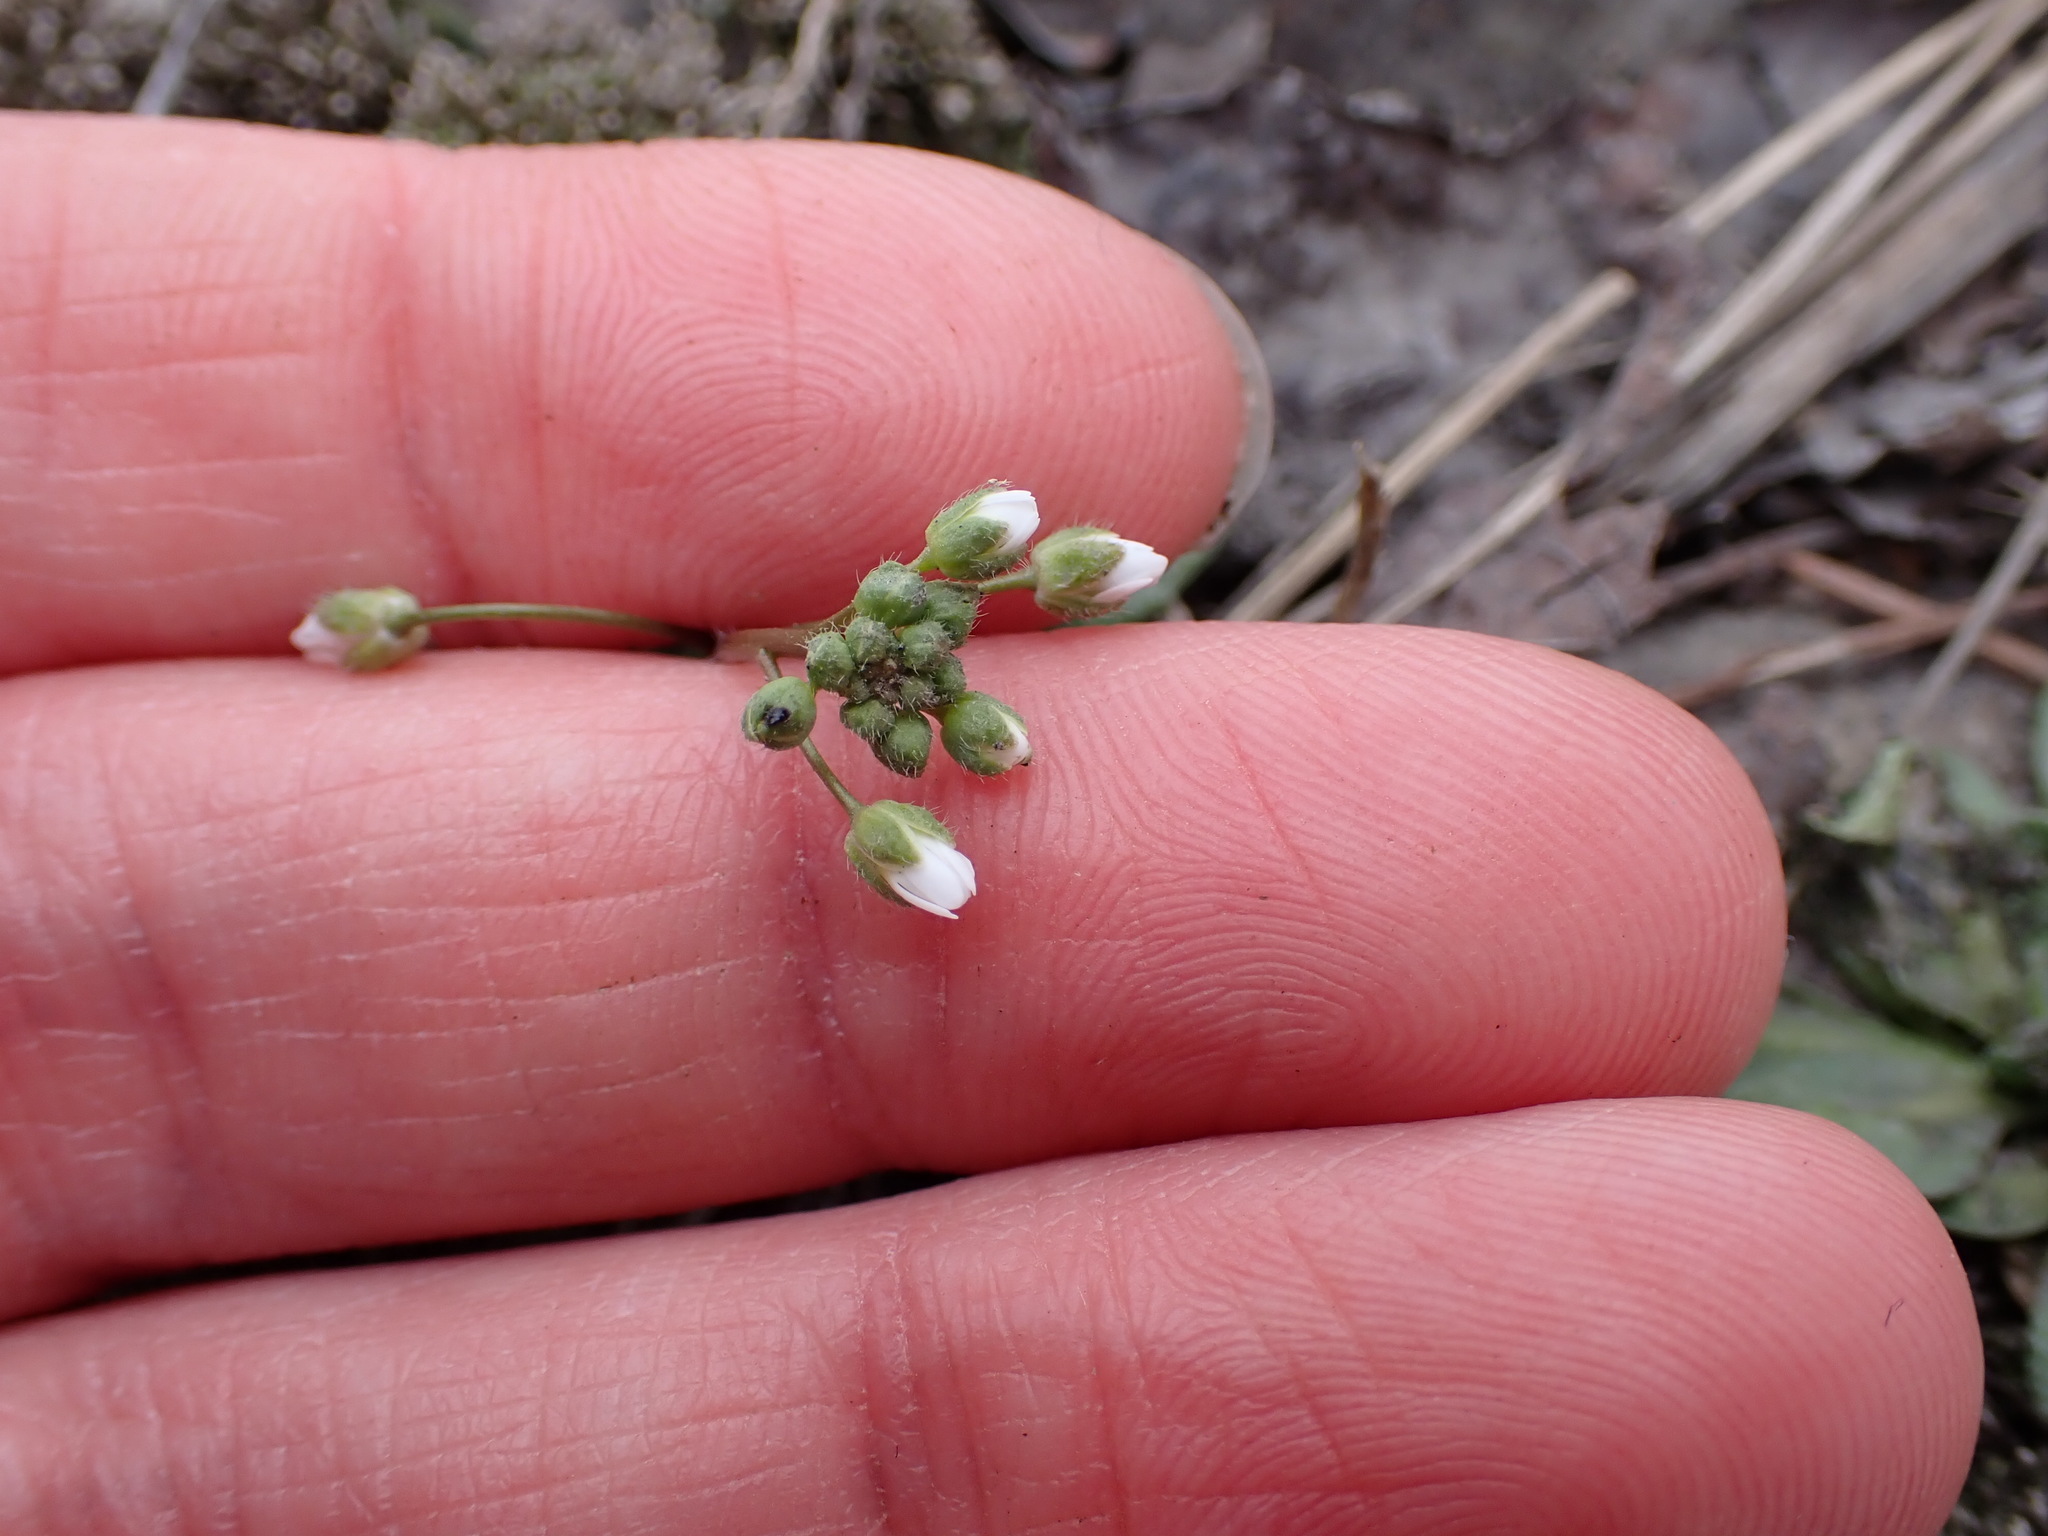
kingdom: Plantae
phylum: Tracheophyta
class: Magnoliopsida
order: Brassicales
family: Brassicaceae
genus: Draba
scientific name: Draba verna
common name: Spring draba
